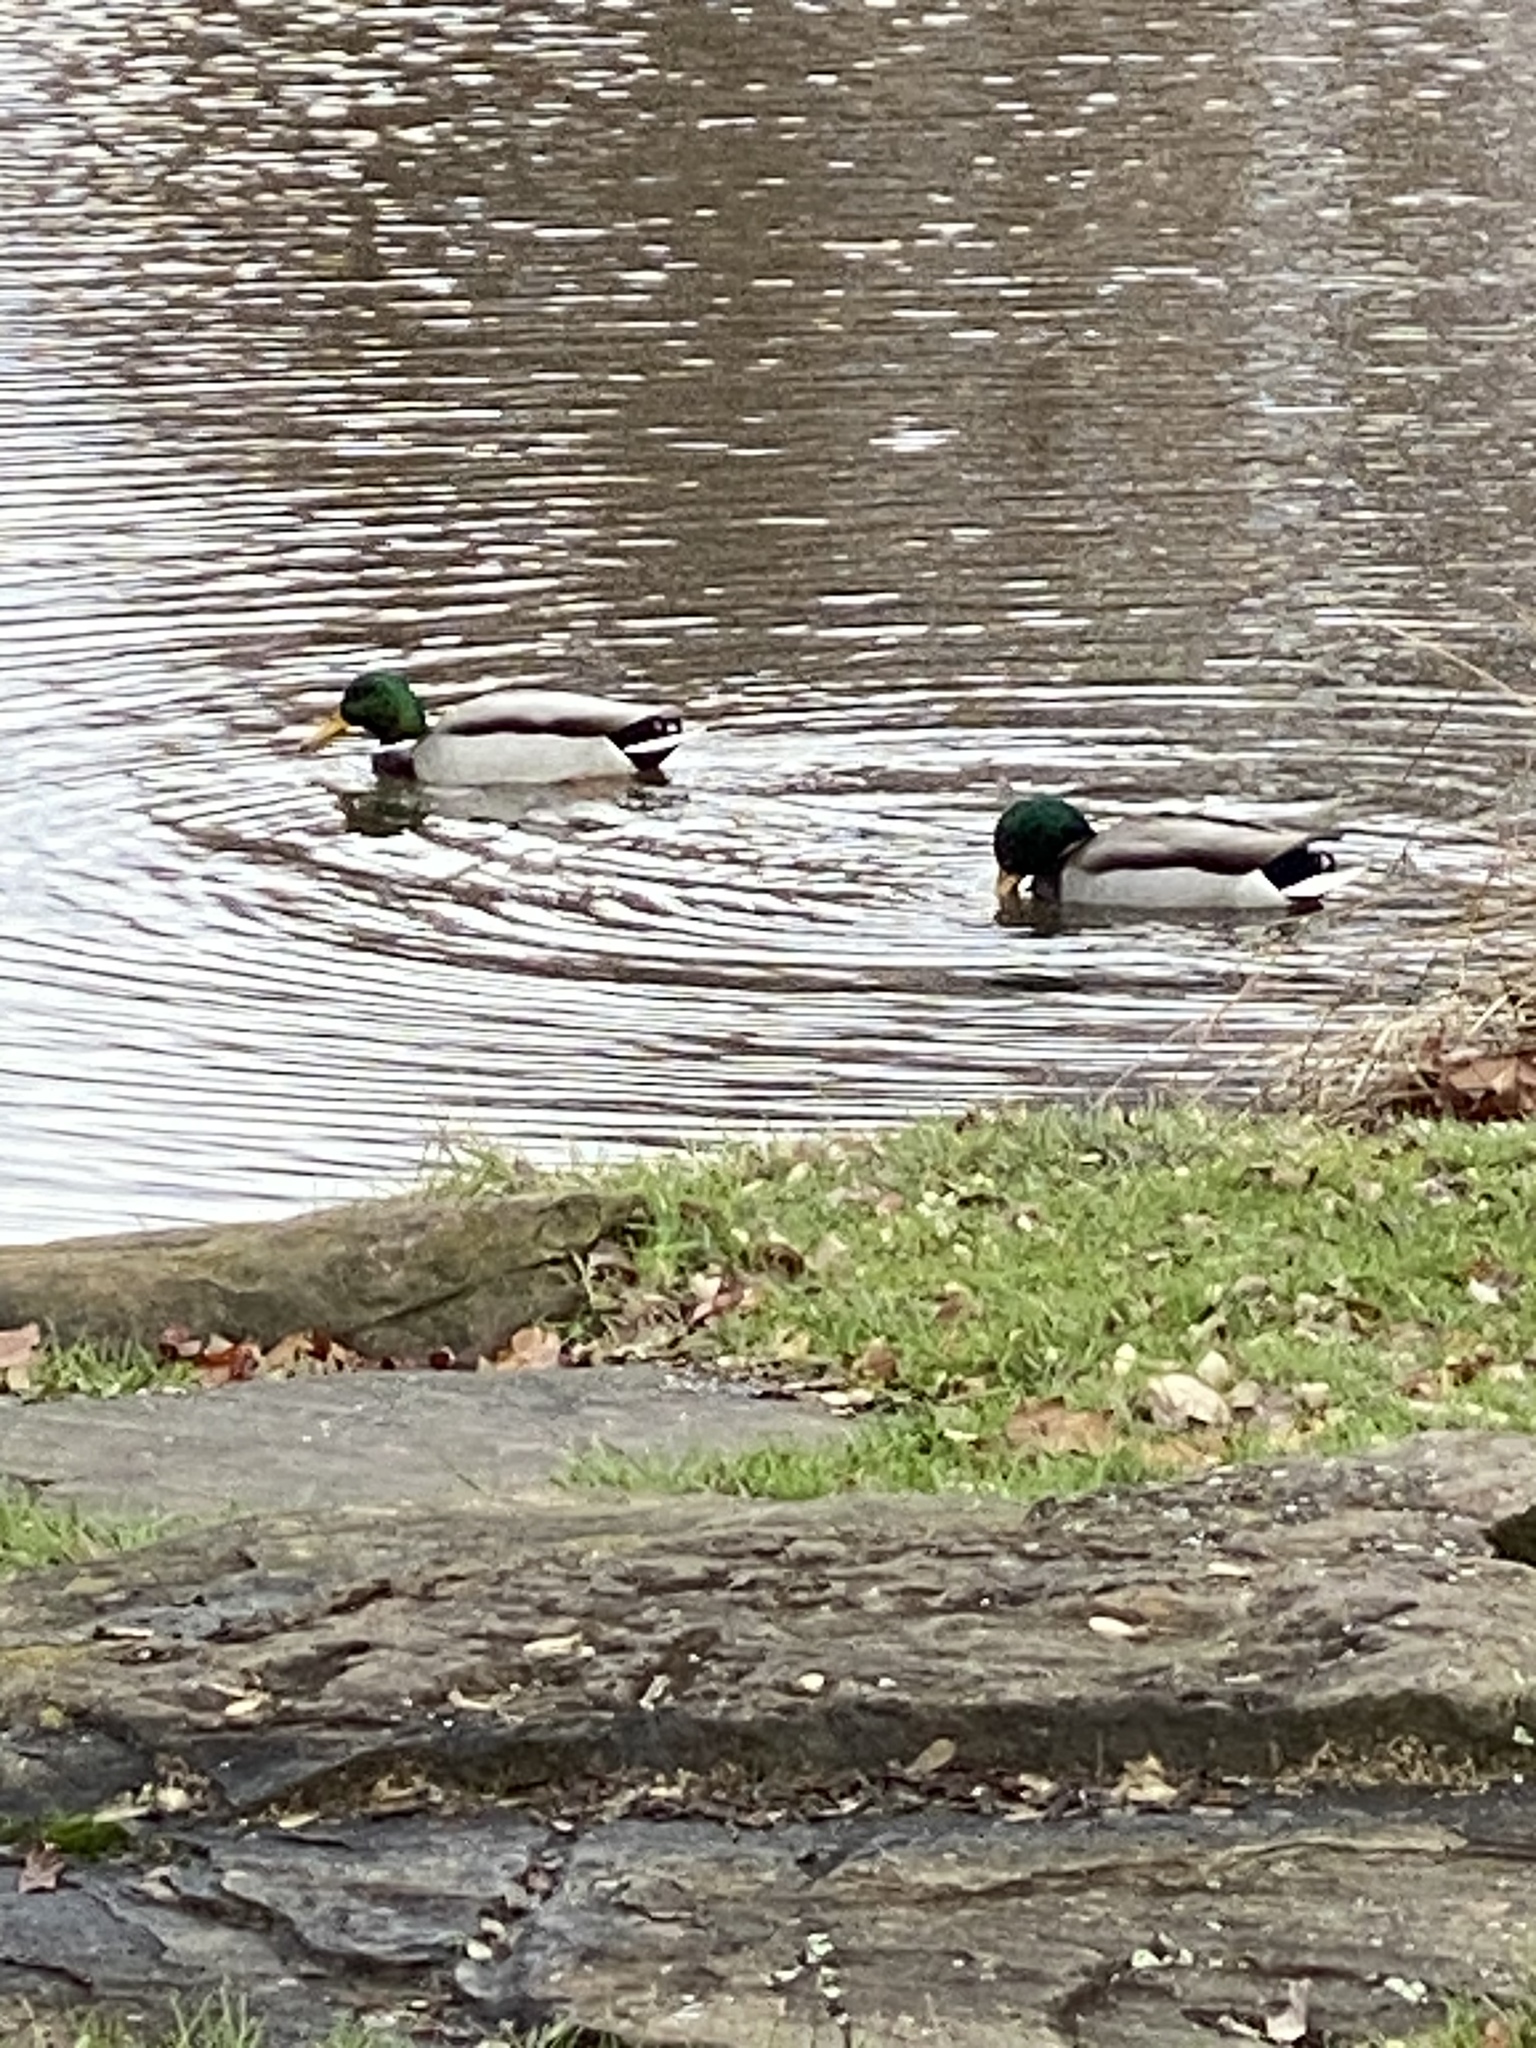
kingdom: Animalia
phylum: Chordata
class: Aves
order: Anseriformes
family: Anatidae
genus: Anas
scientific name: Anas platyrhynchos
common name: Mallard
